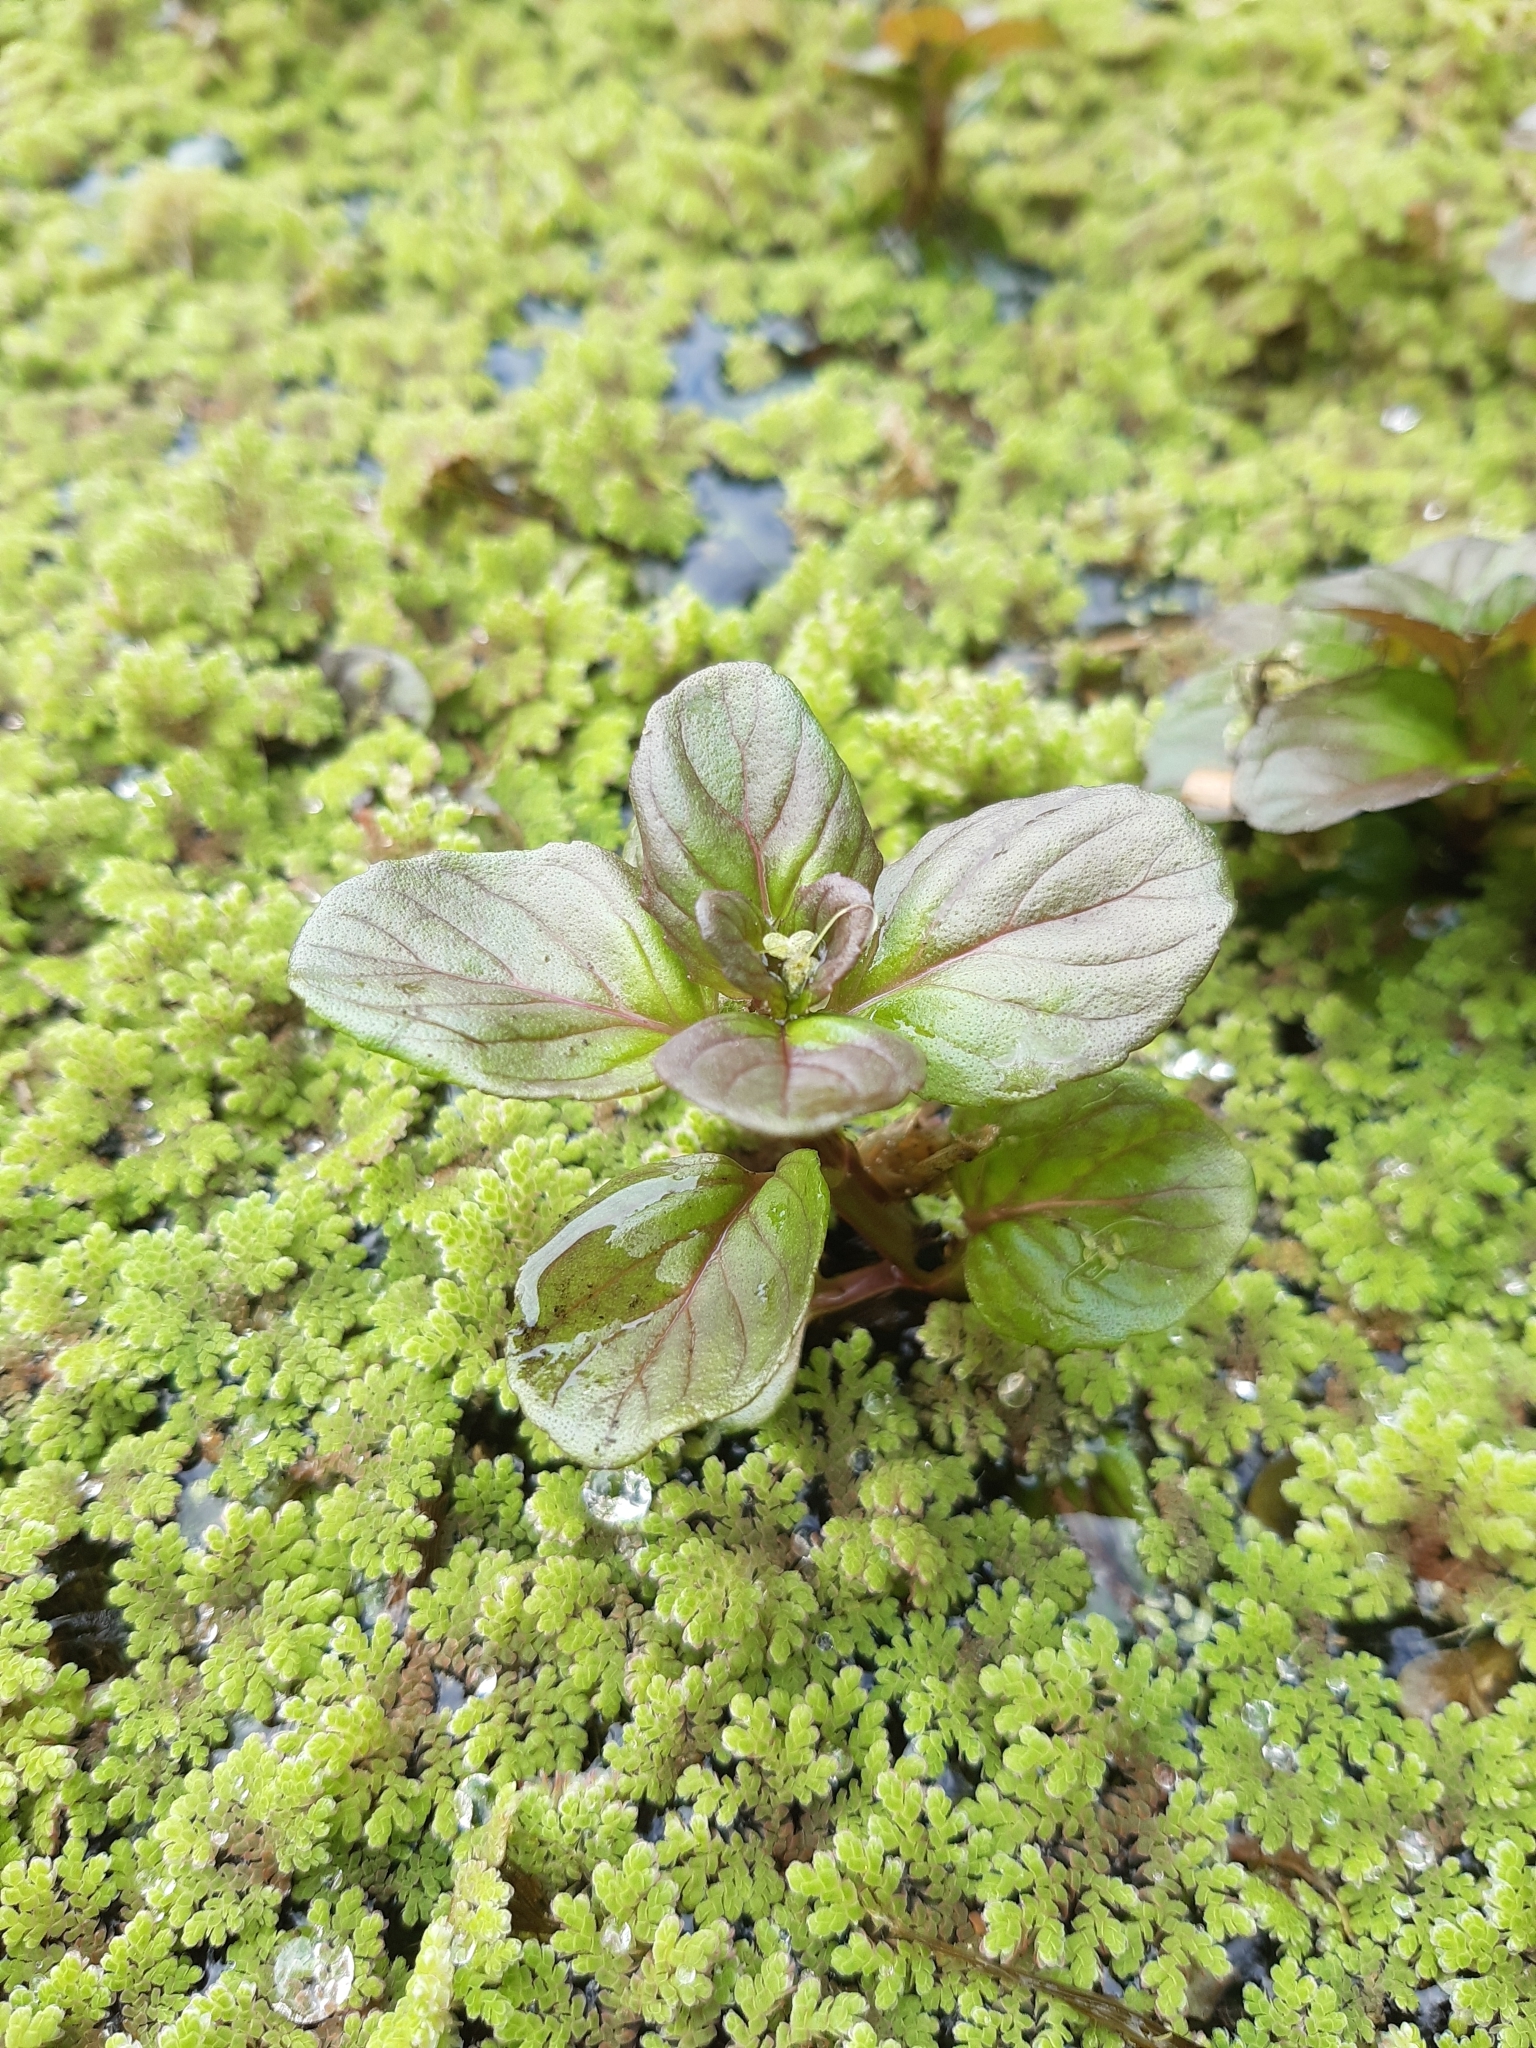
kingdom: Plantae
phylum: Tracheophyta
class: Magnoliopsida
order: Lamiales
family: Lamiaceae
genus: Mentha
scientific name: Mentha aquatica
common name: Water mint
